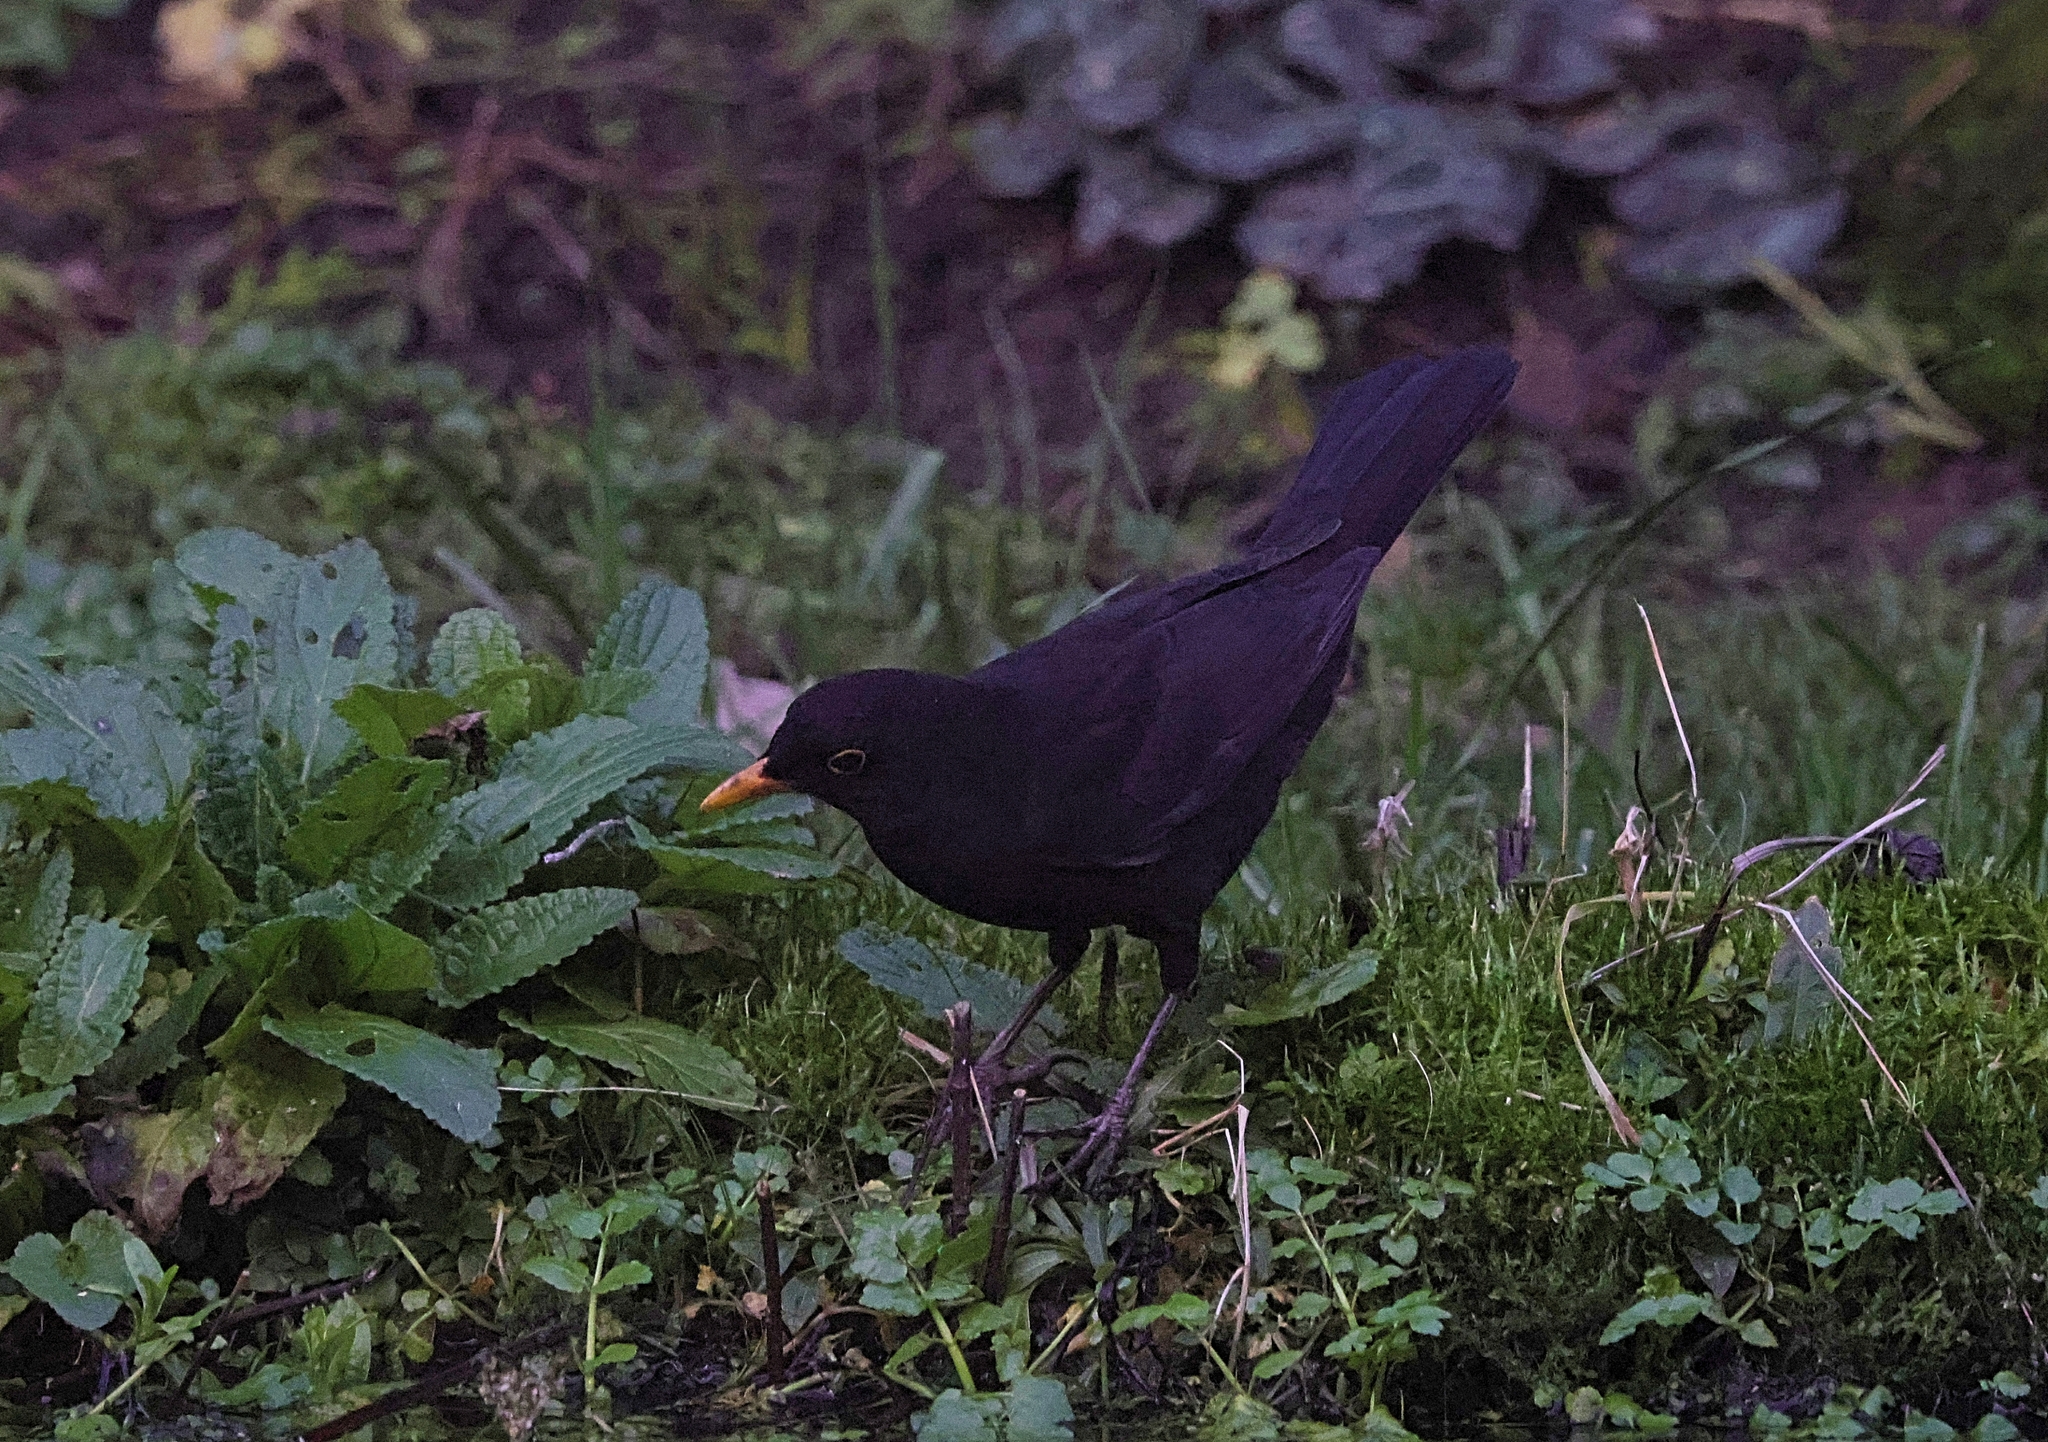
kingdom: Animalia
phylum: Chordata
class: Aves
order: Passeriformes
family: Turdidae
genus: Turdus
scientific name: Turdus merula
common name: Common blackbird
